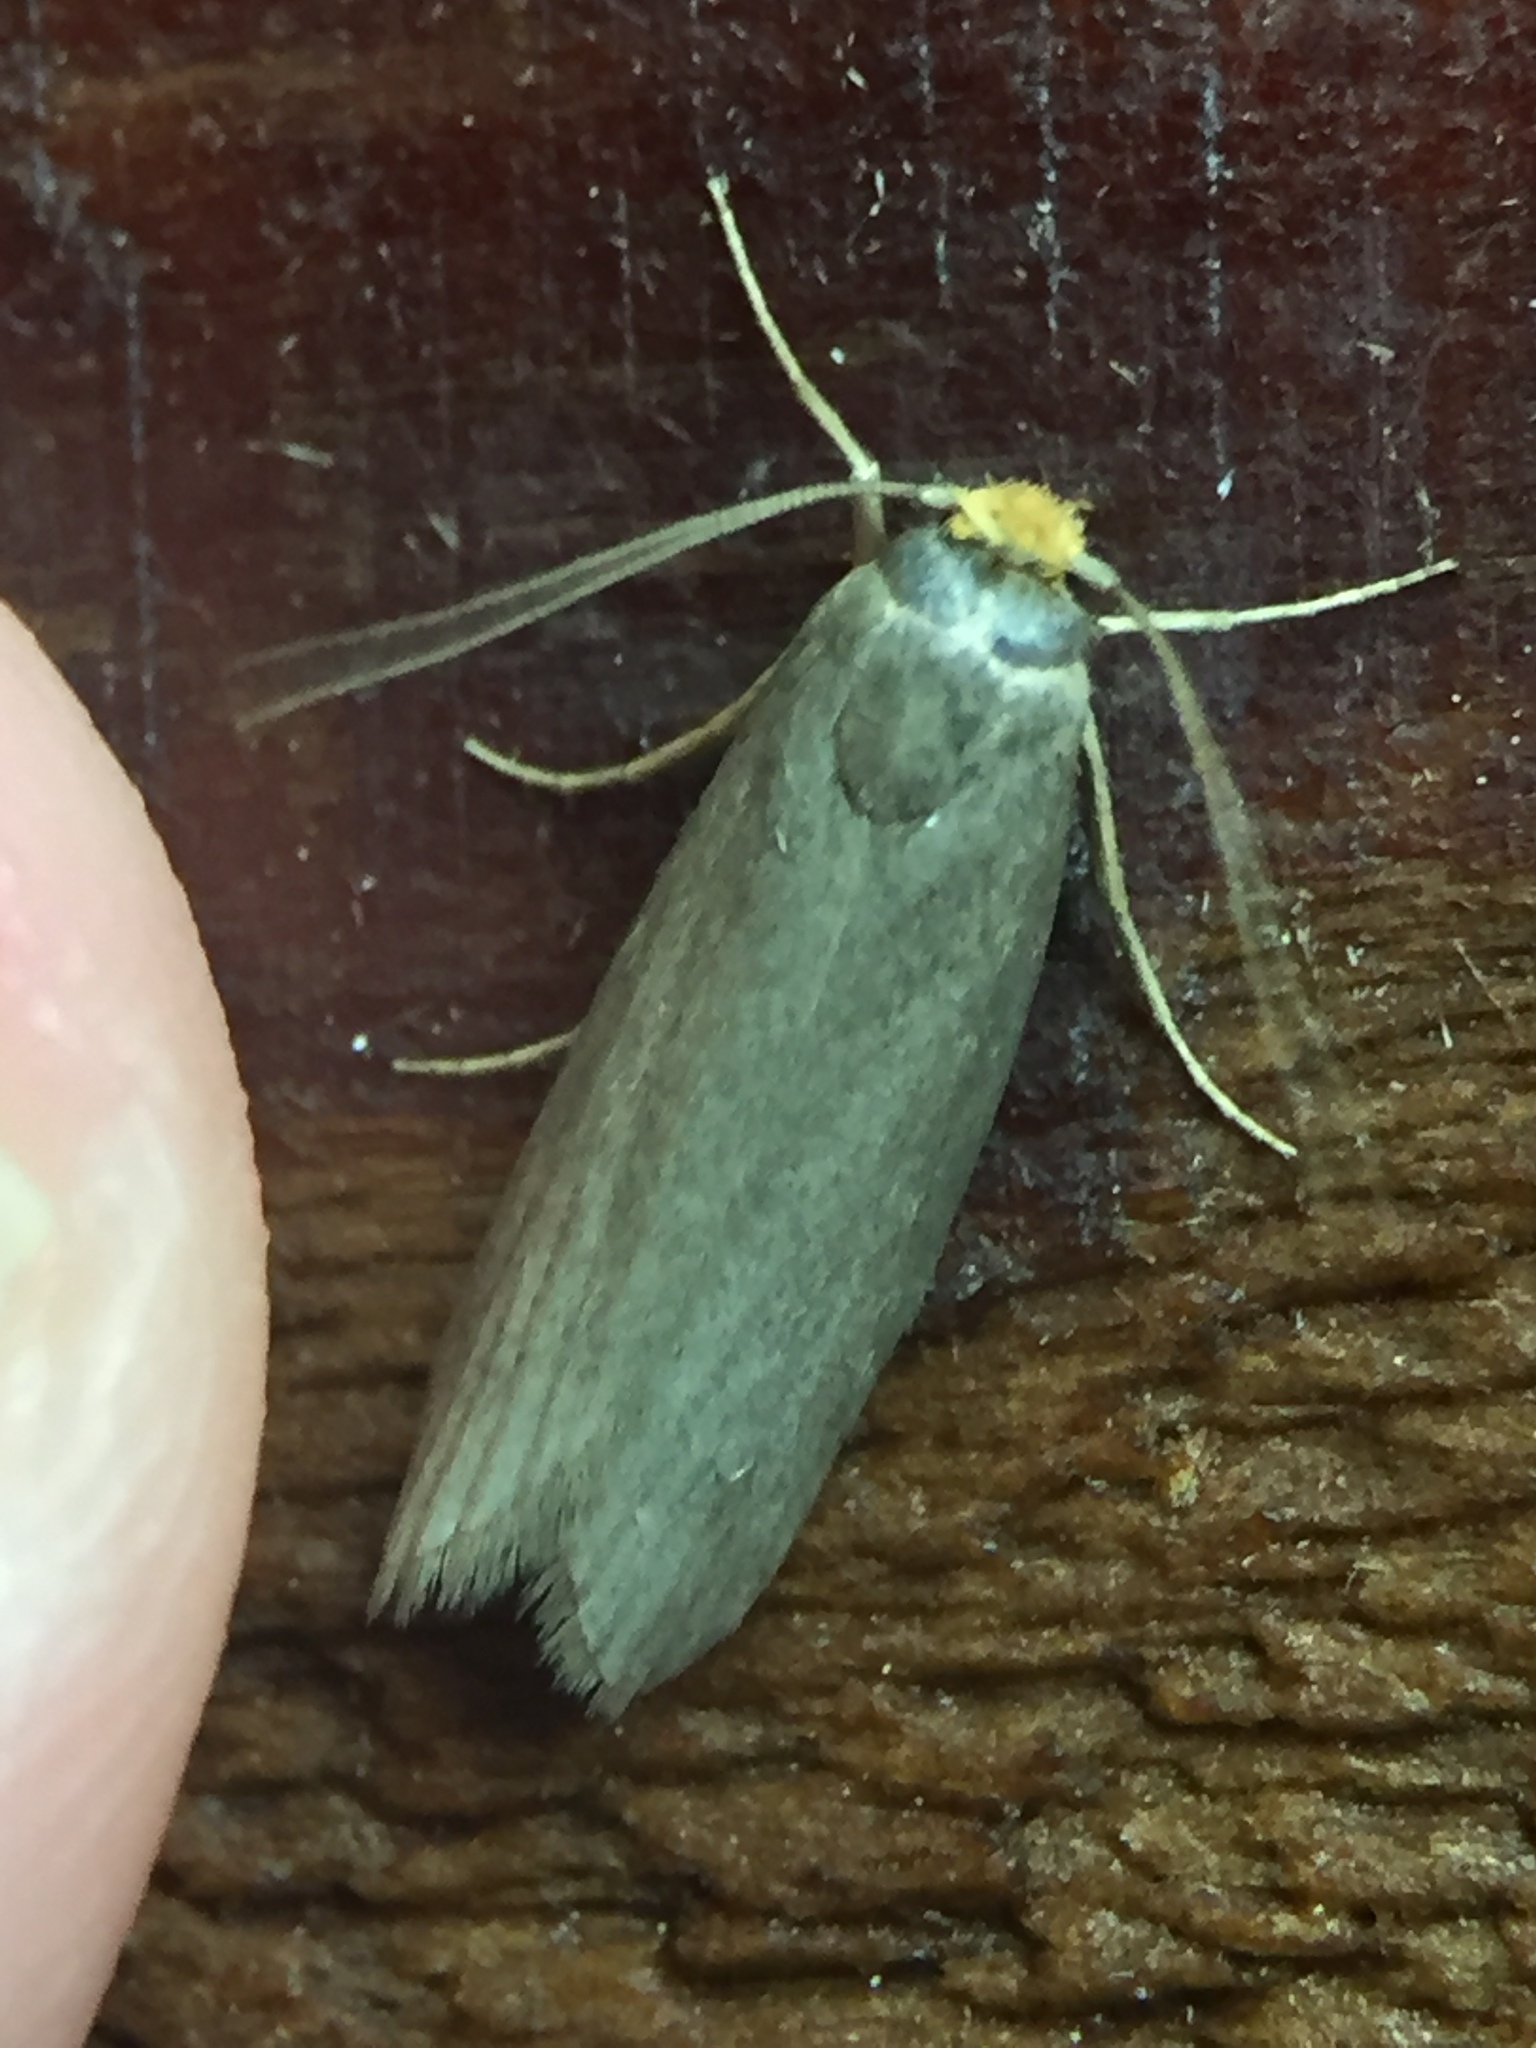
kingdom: Animalia
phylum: Arthropoda
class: Insecta
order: Lepidoptera
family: Pyralidae
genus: Achroia
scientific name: Achroia grisella
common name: Lesser wax moth
